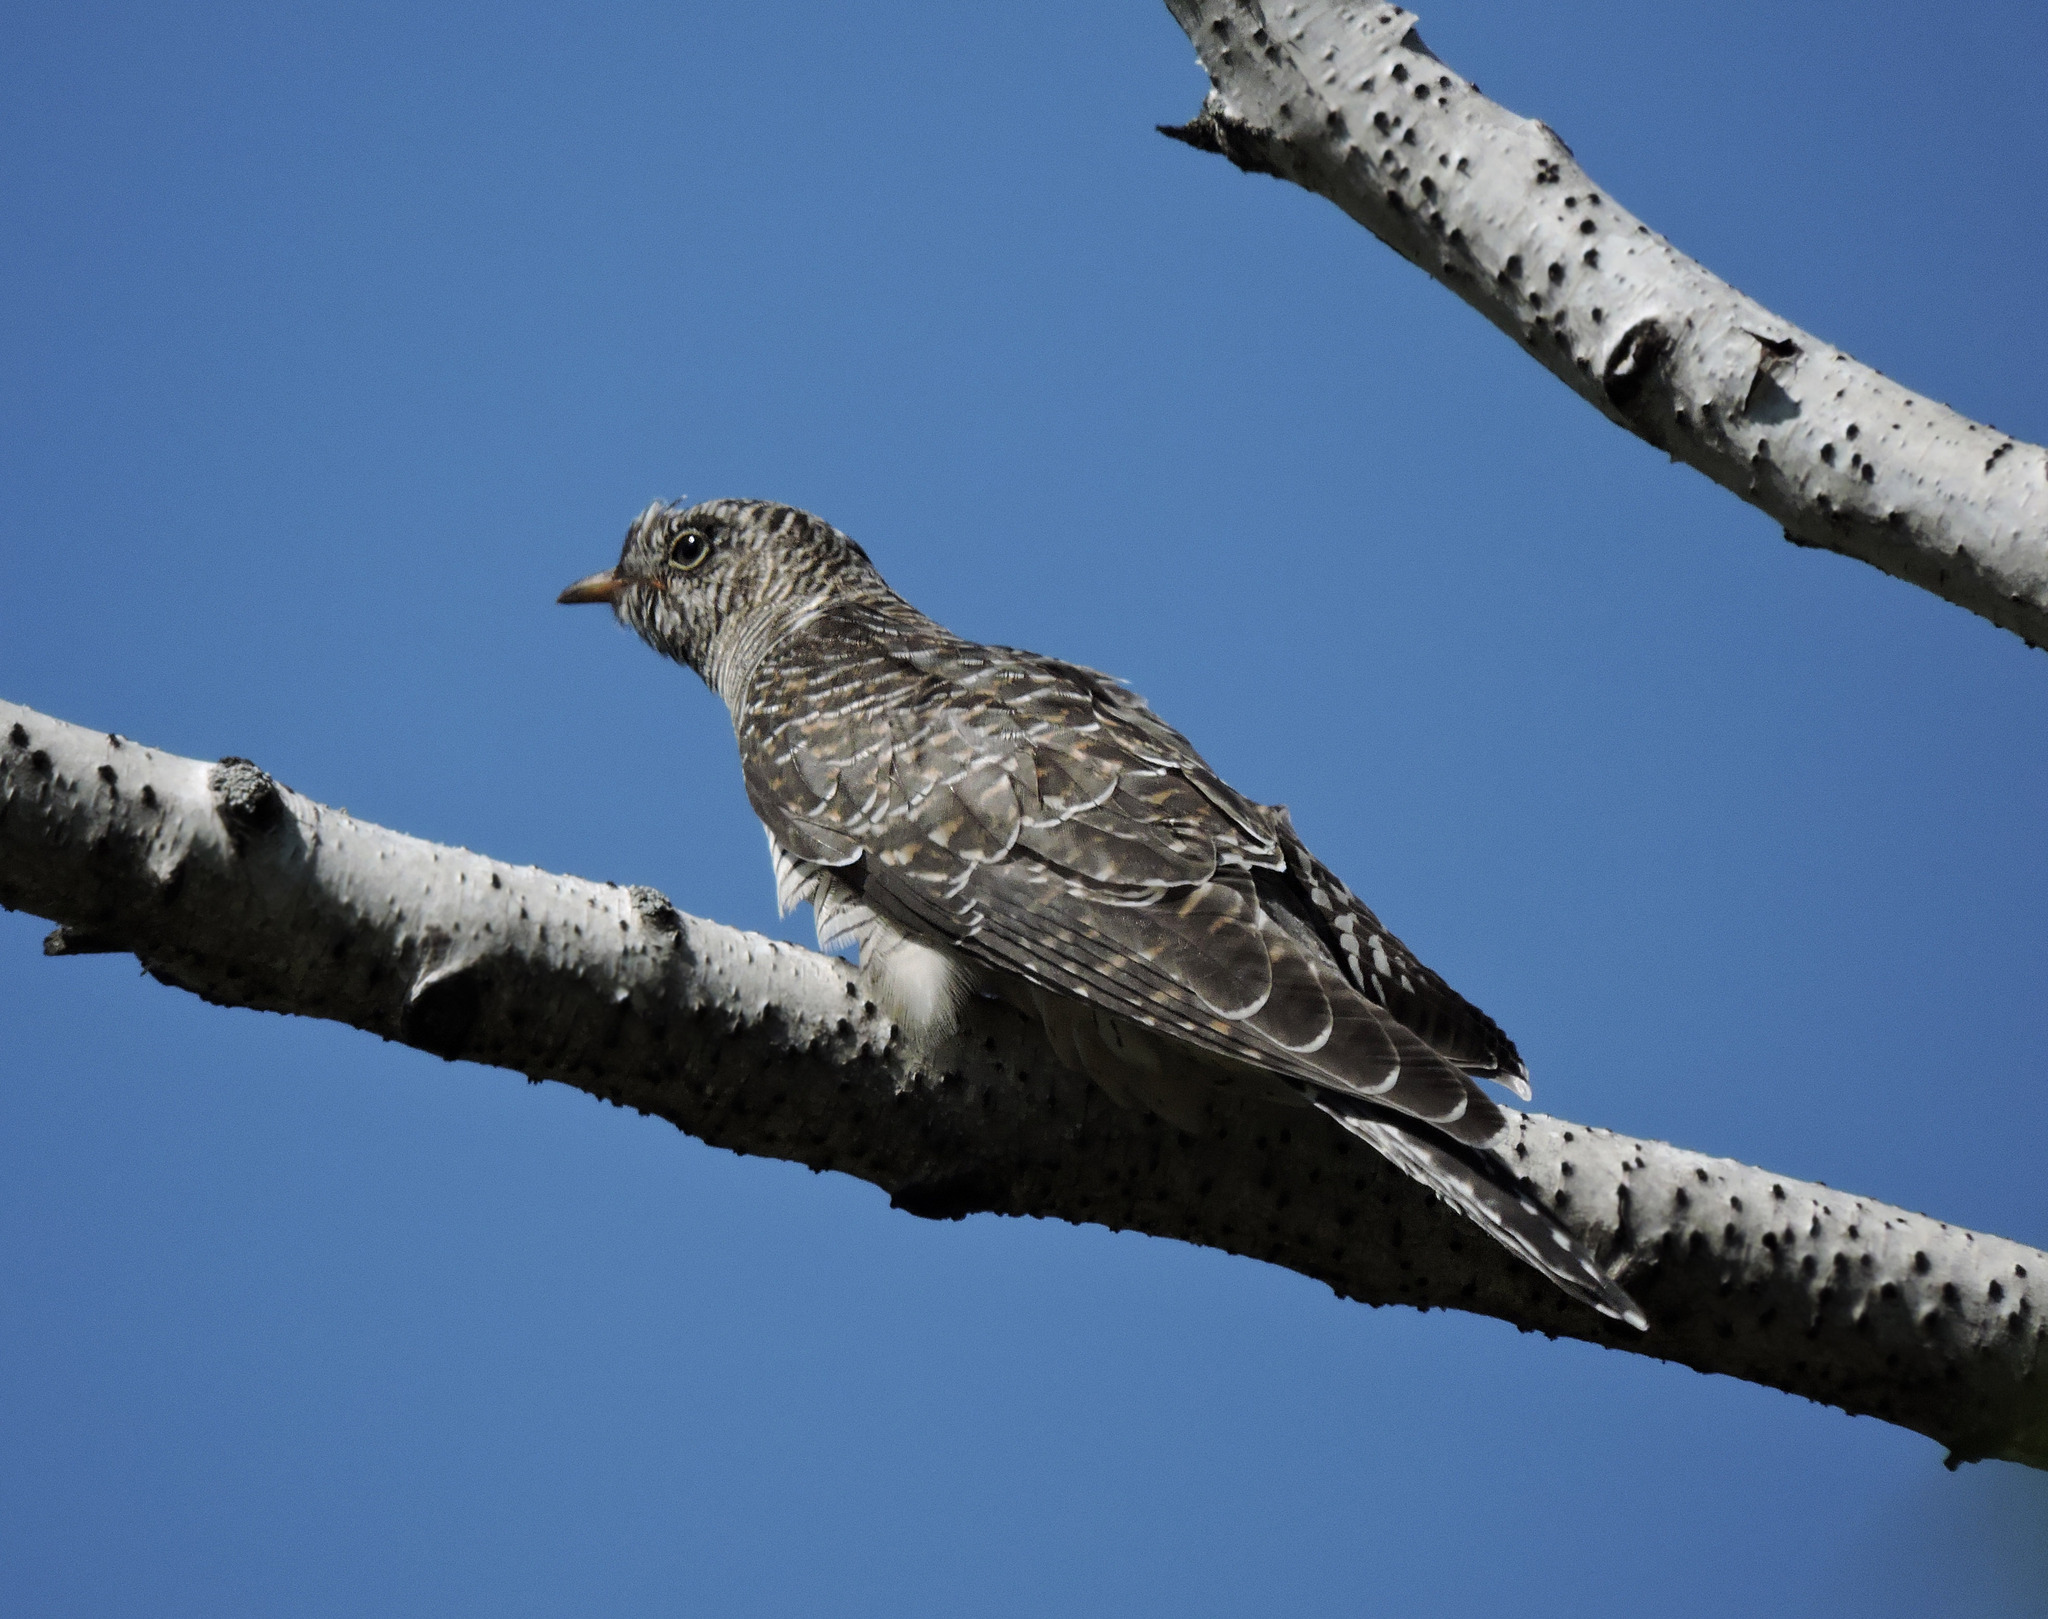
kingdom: Animalia
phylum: Chordata
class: Aves
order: Cuculiformes
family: Cuculidae
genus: Cuculus
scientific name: Cuculus canorus
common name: Common cuckoo
